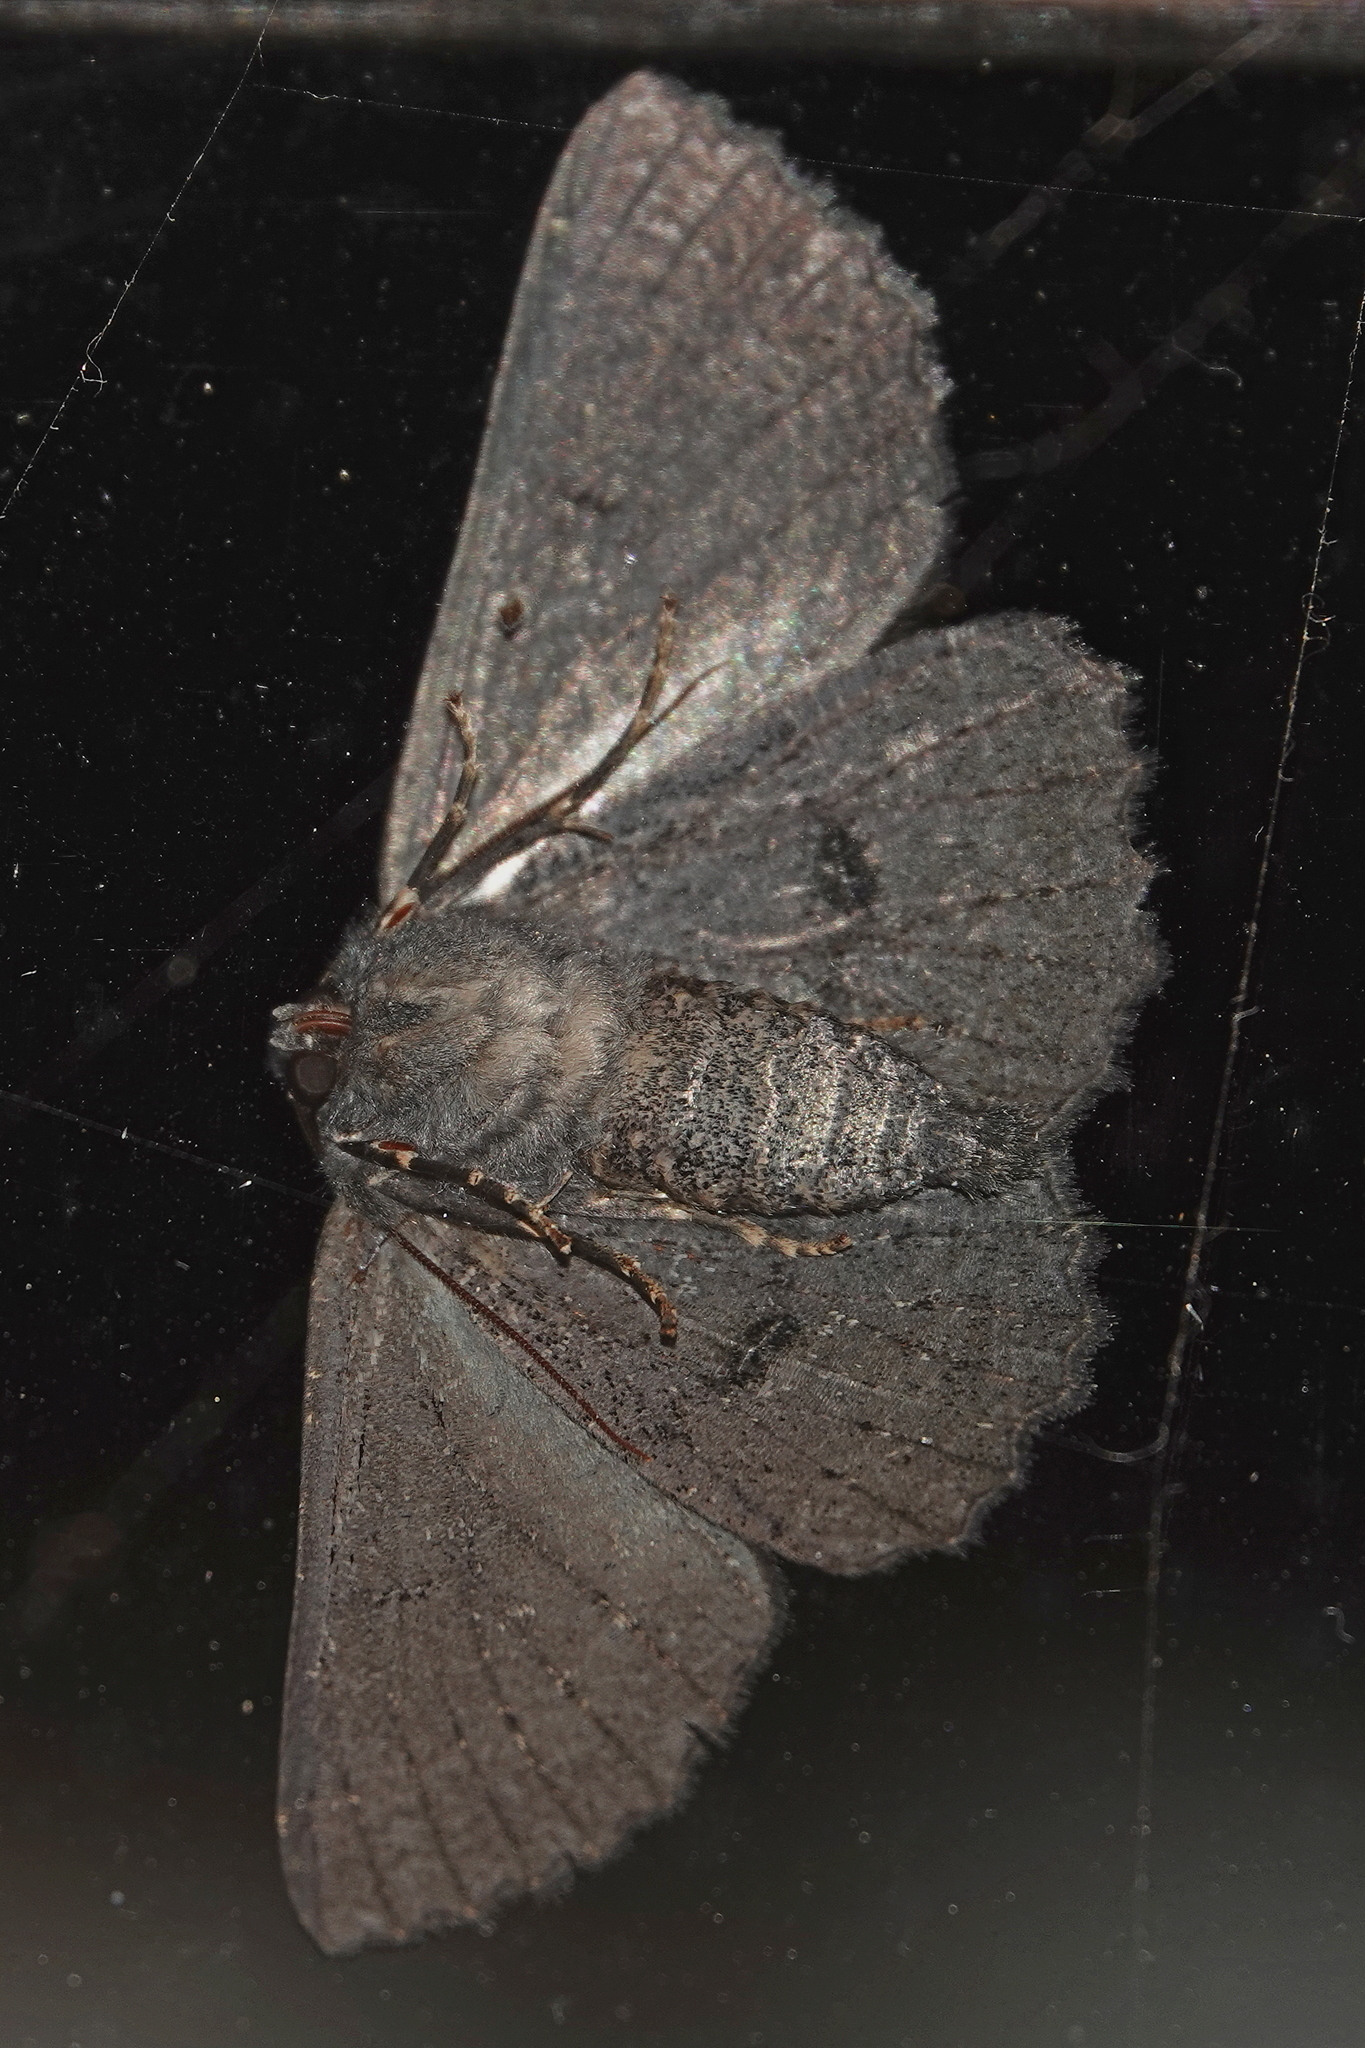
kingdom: Animalia
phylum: Arthropoda
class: Insecta
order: Lepidoptera
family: Geometridae
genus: Melanodes
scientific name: Melanodes anthracitaria
